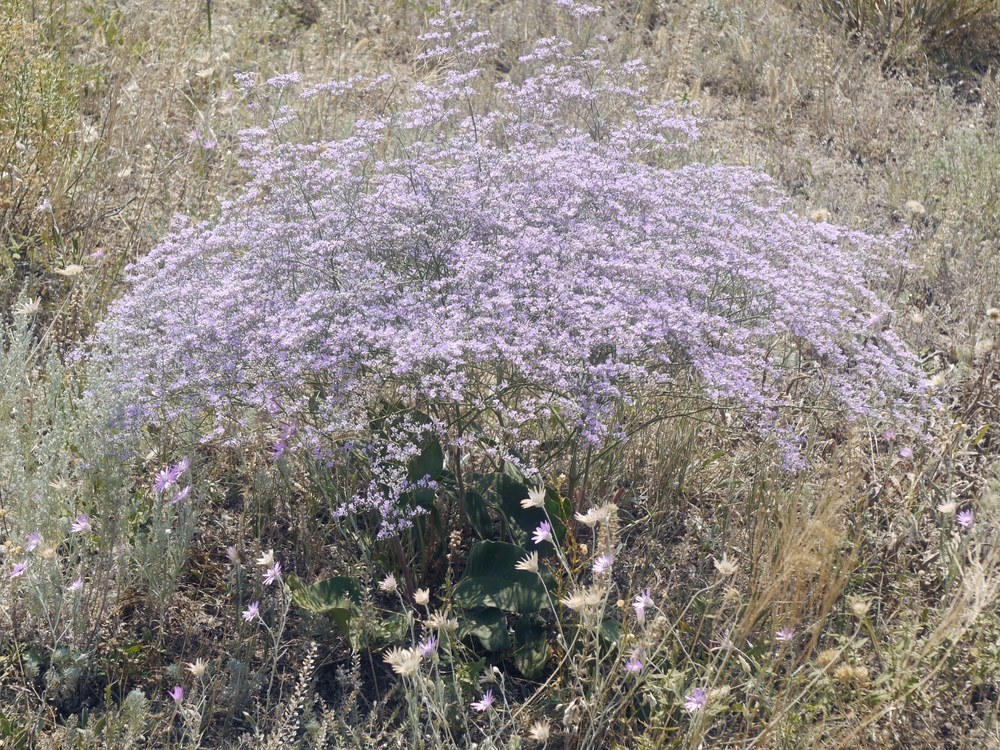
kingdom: Plantae
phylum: Tracheophyta
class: Magnoliopsida
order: Caryophyllales
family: Plumbaginaceae
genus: Limonium
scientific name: Limonium platyphyllum
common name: Florist's sea lavender
